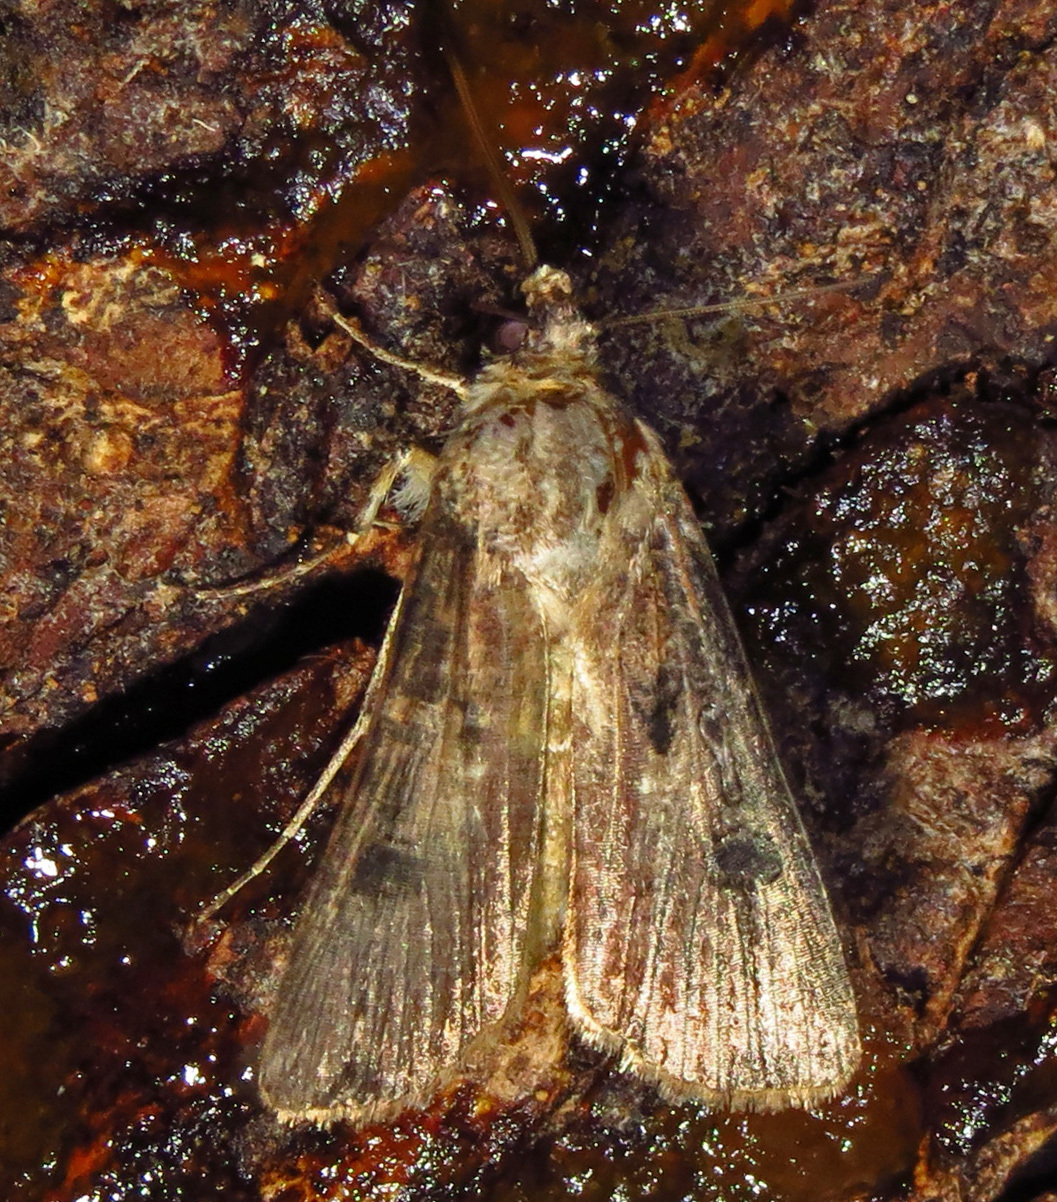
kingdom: Animalia
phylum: Arthropoda
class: Insecta
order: Lepidoptera
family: Noctuidae
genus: Agrotis
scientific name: Agrotis ipsilon
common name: Dark sword-grass
